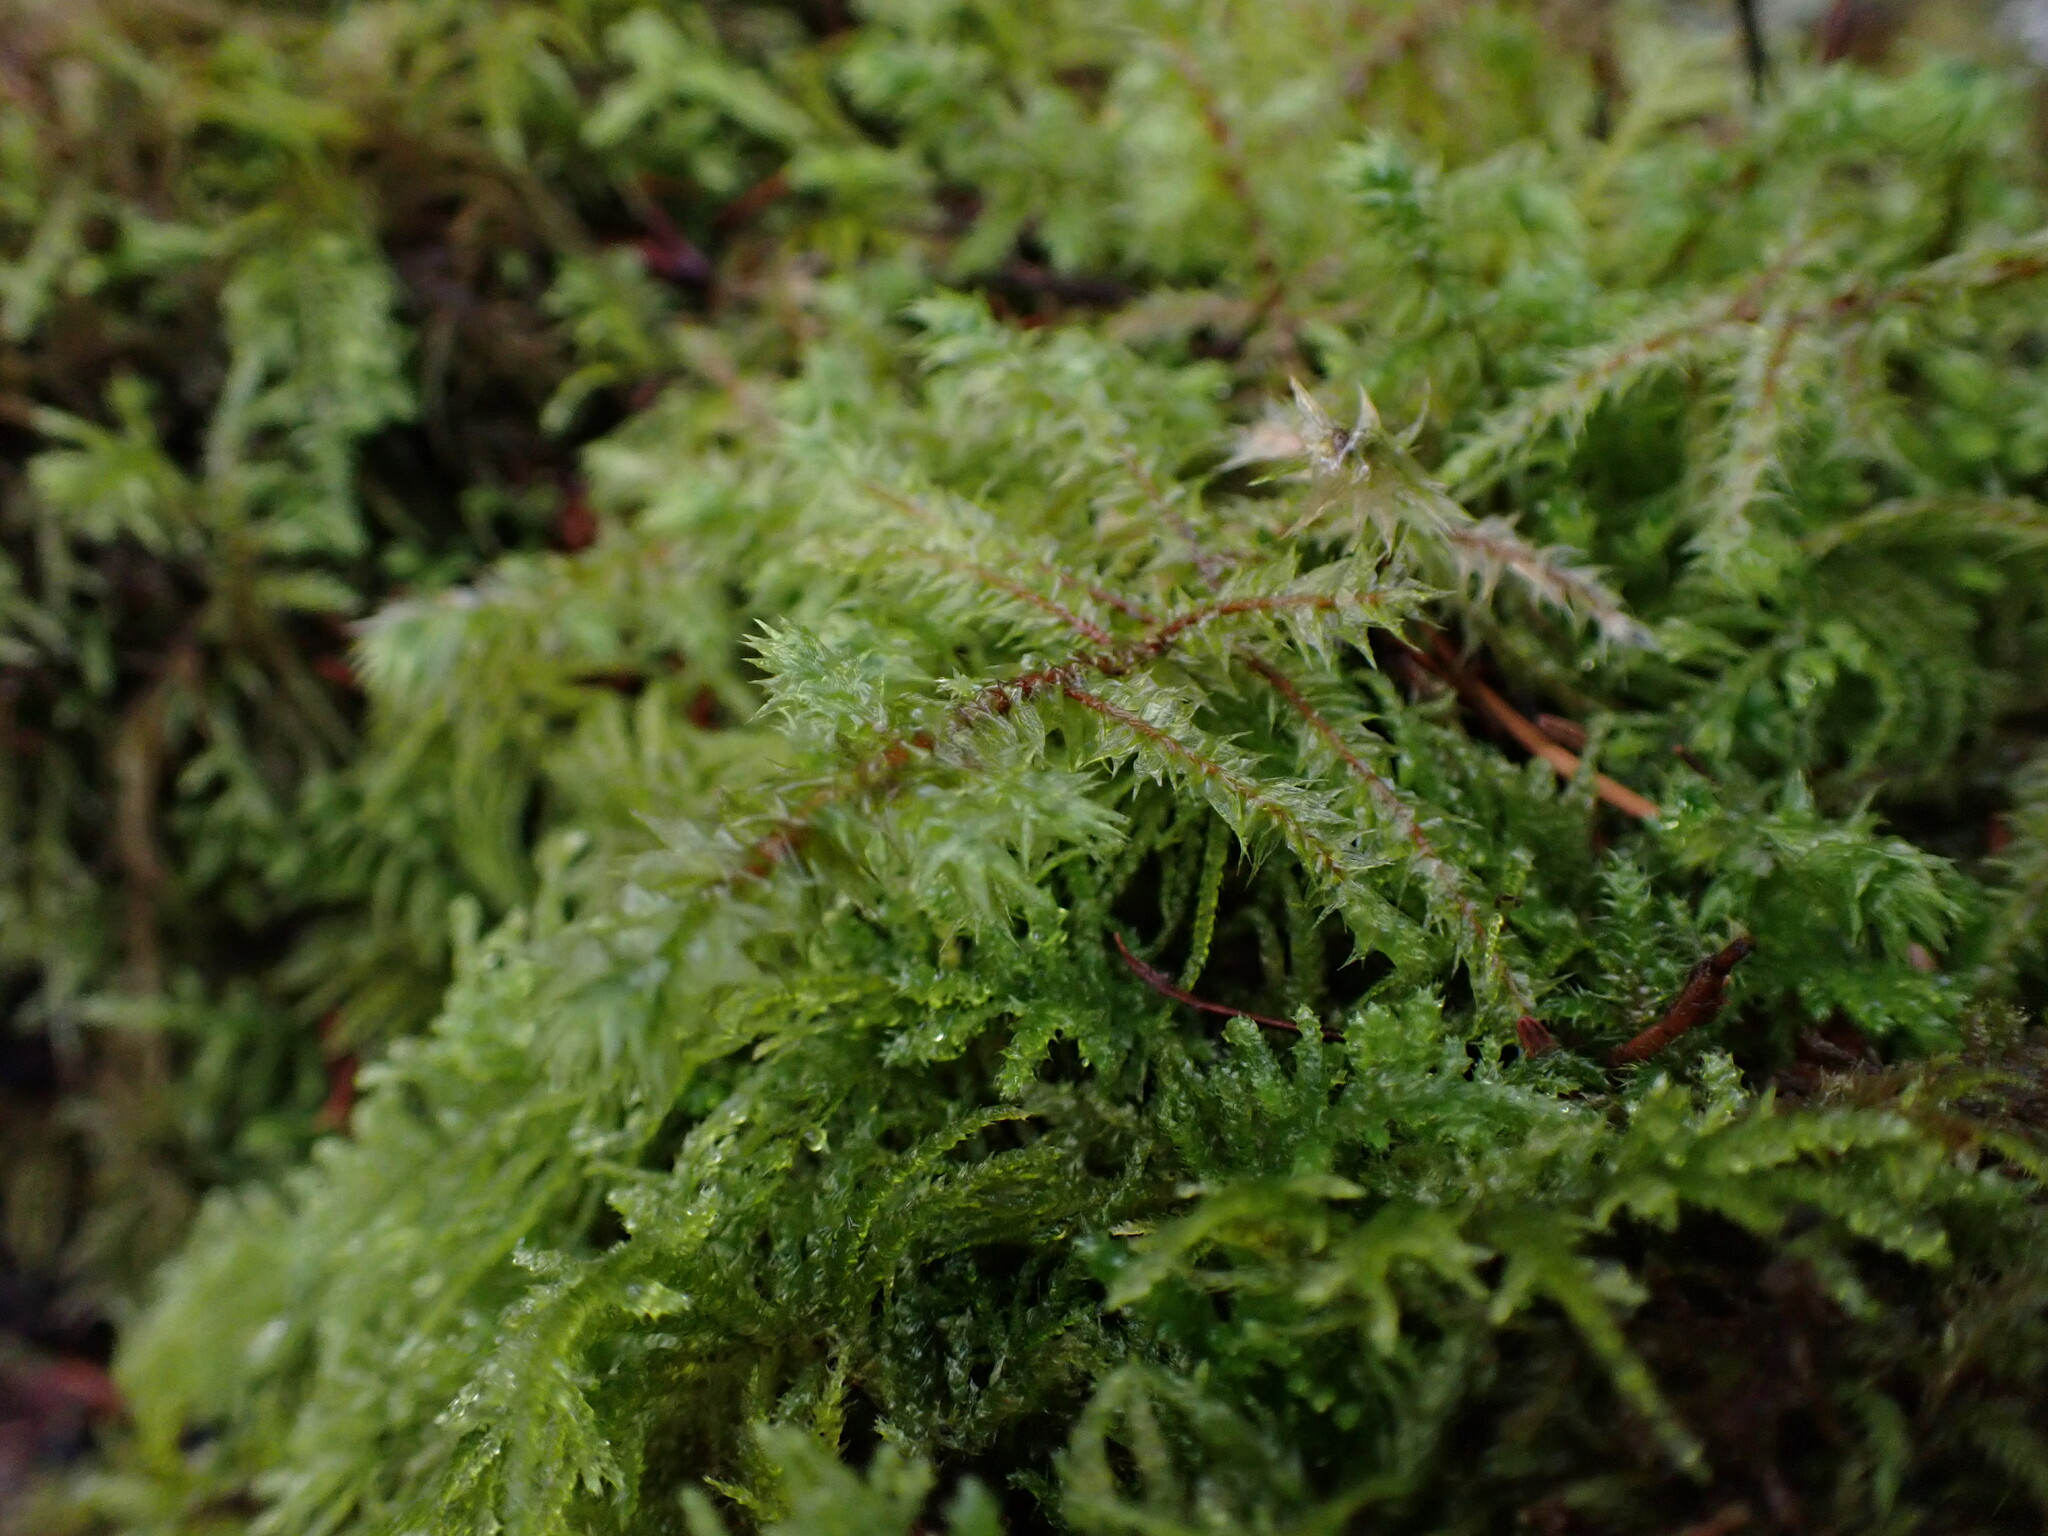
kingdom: Plantae
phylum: Bryophyta
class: Bryopsida
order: Hypnales
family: Hylocomiaceae
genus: Hylocomiadelphus
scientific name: Hylocomiadelphus triquetrus
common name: Rough goose neck moss
